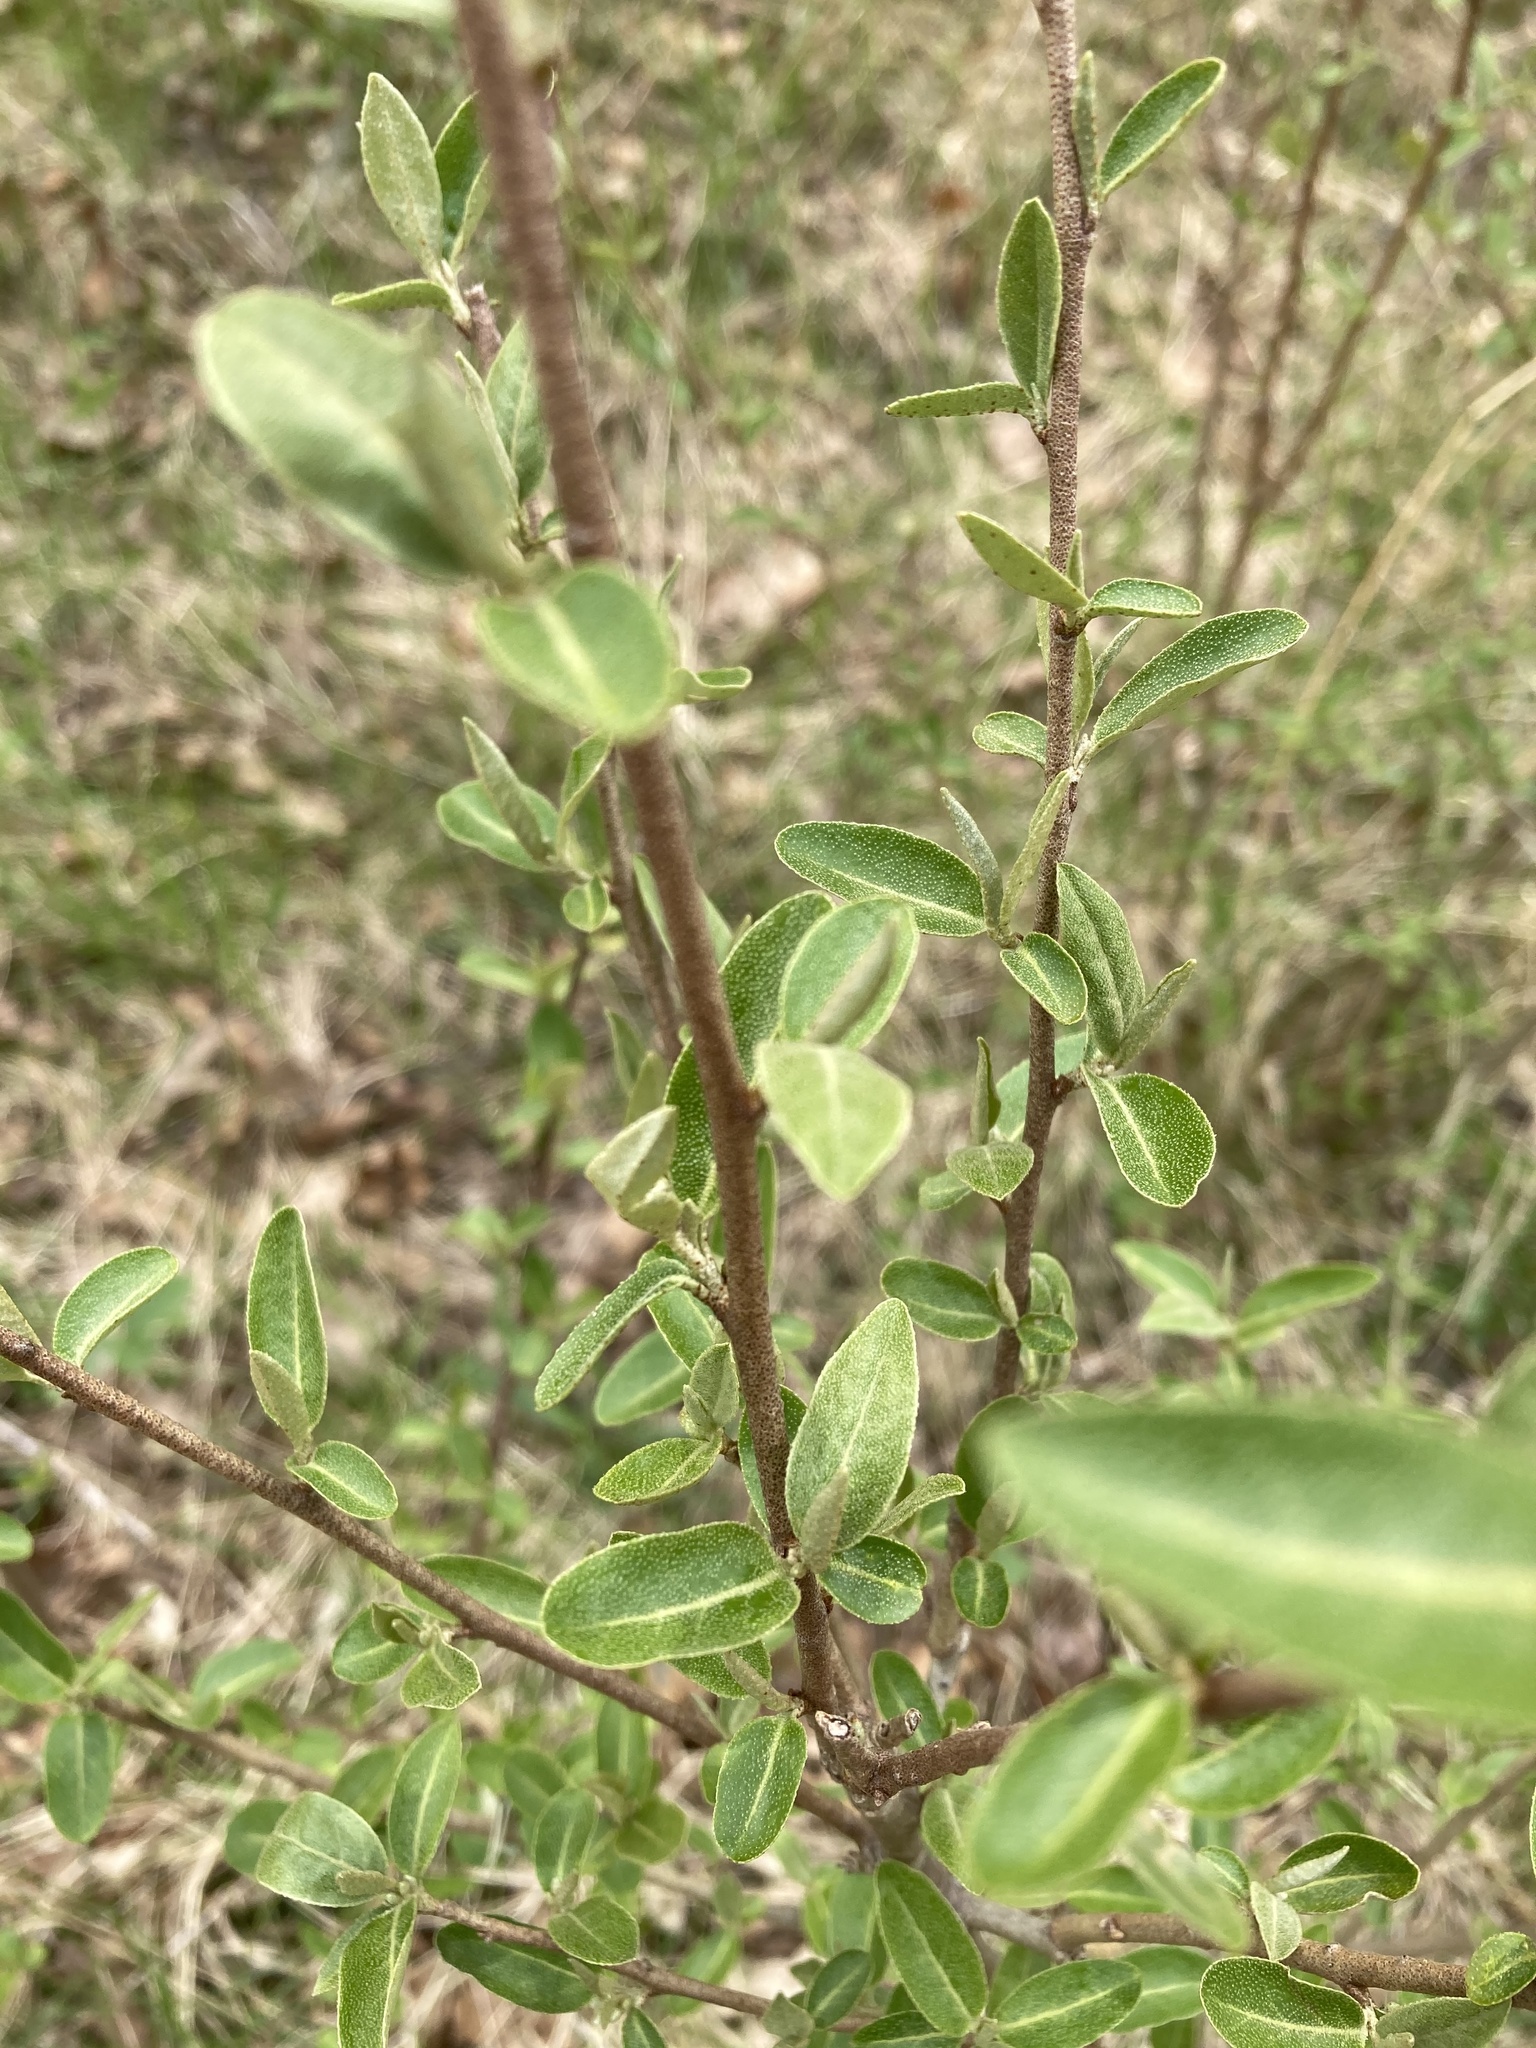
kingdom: Plantae
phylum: Tracheophyta
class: Magnoliopsida
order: Rosales
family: Elaeagnaceae
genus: Elaeagnus
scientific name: Elaeagnus umbellata
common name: Autumn olive
